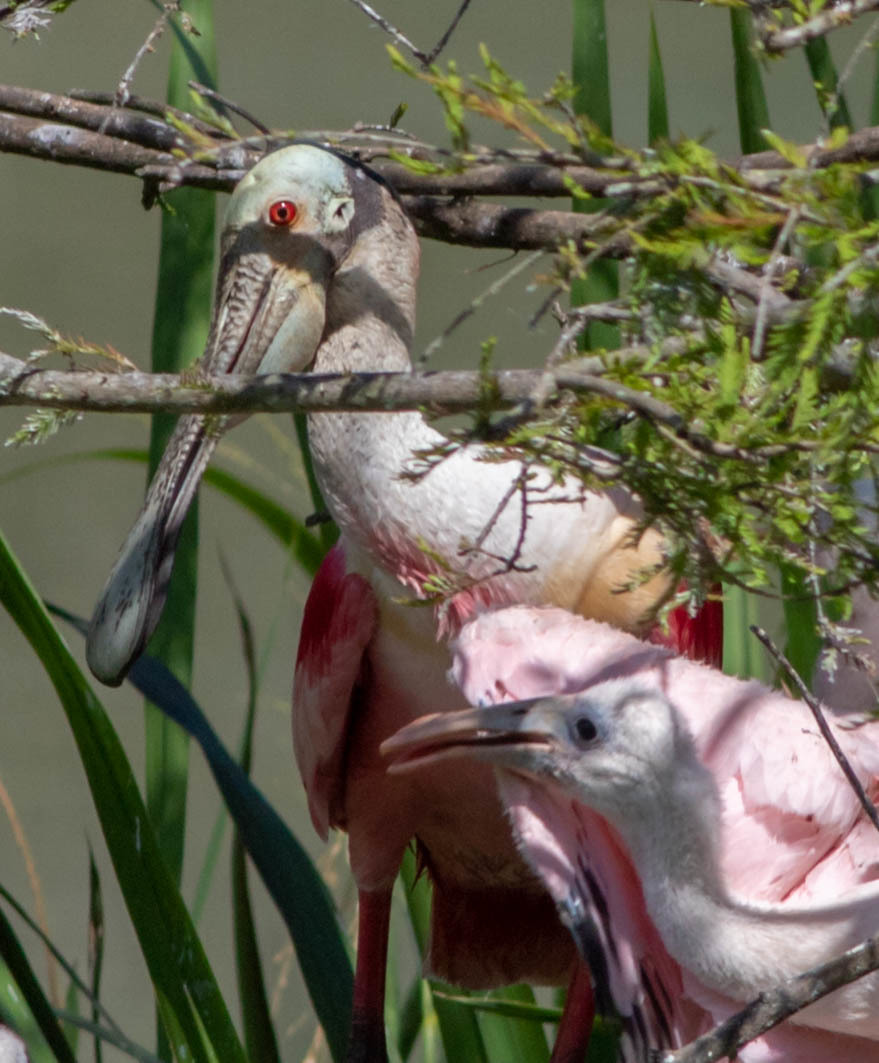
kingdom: Animalia
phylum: Chordata
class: Aves
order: Pelecaniformes
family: Threskiornithidae
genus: Platalea
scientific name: Platalea ajaja
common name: Roseate spoonbill
